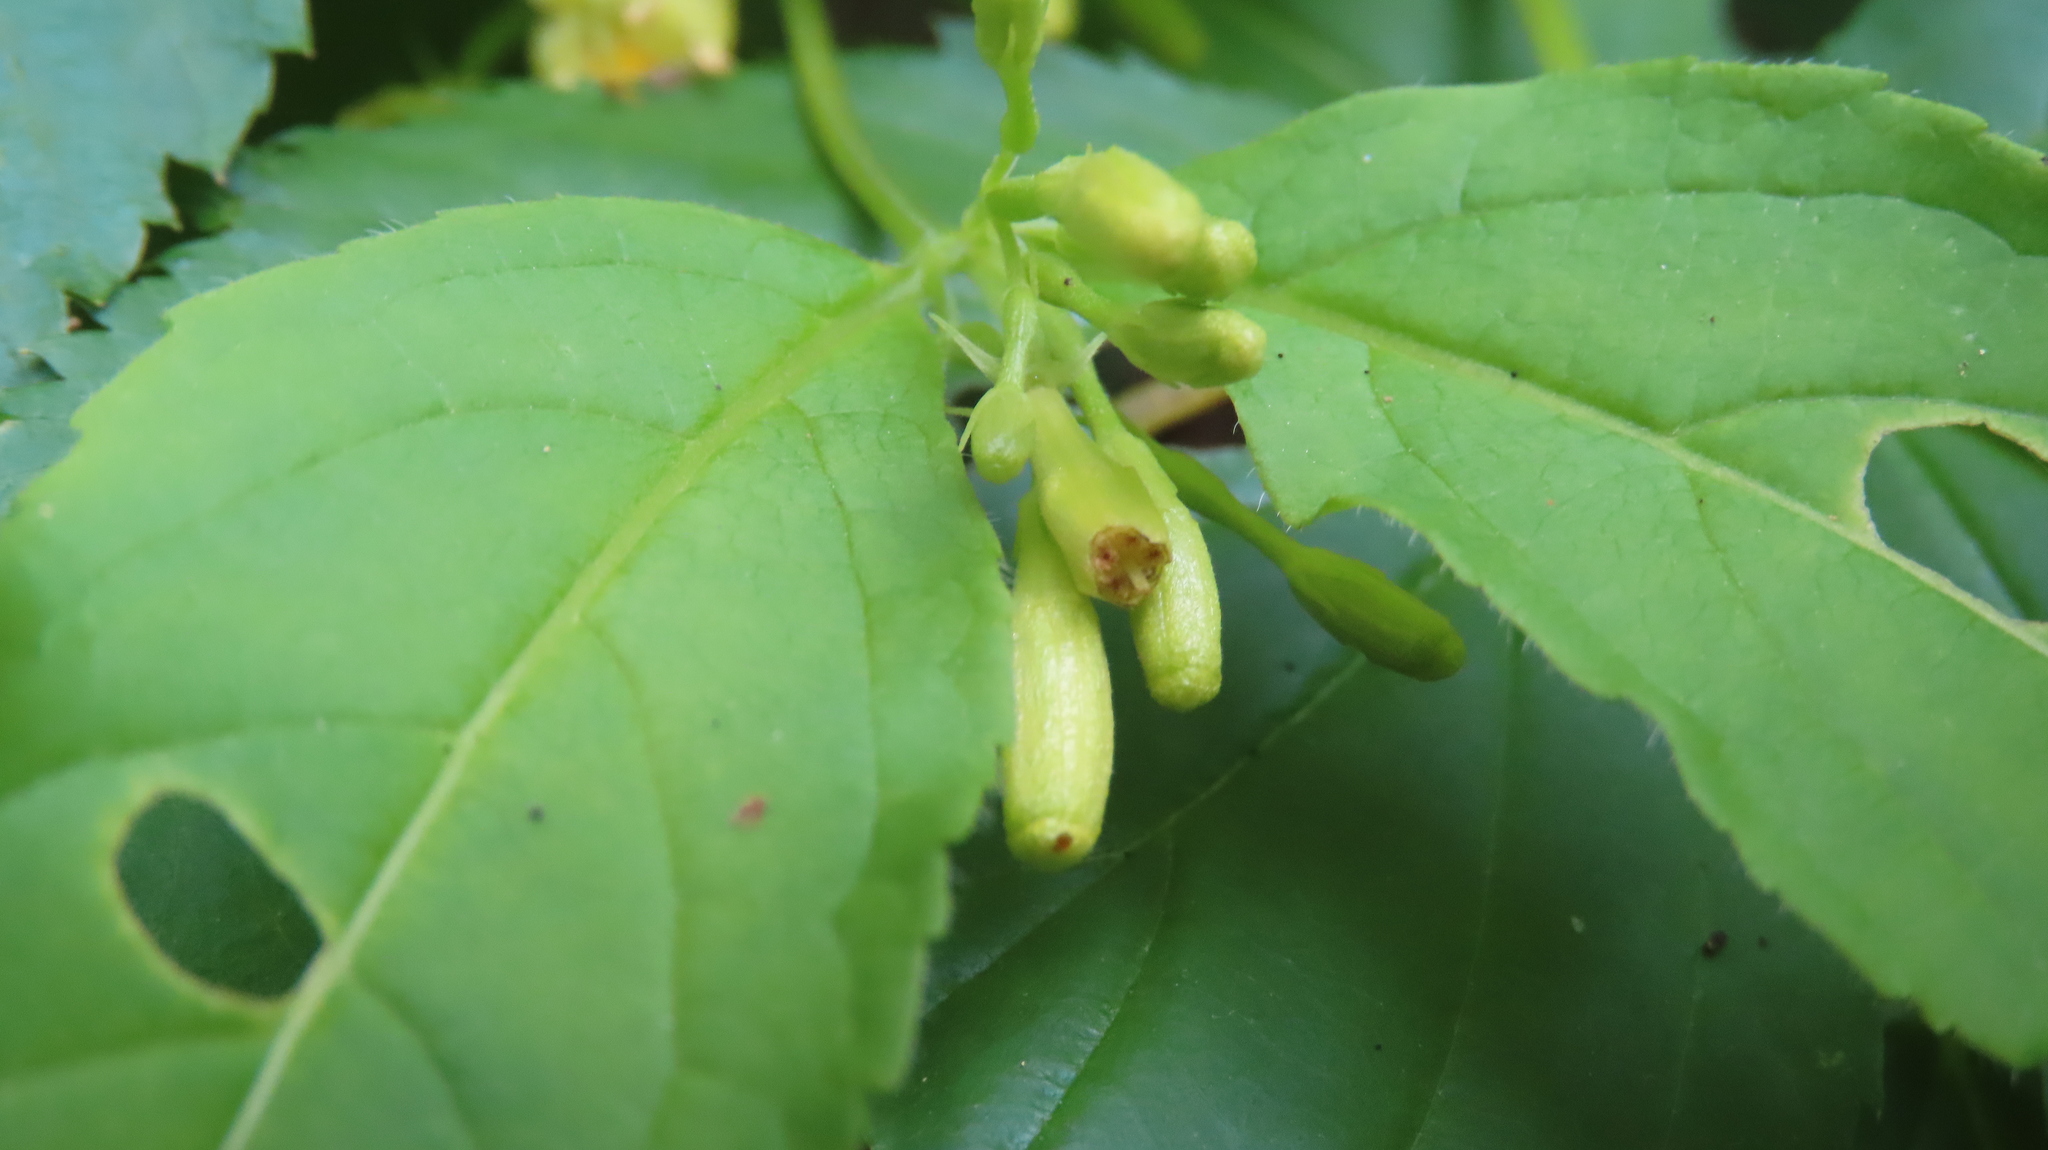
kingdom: Plantae
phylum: Tracheophyta
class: Magnoliopsida
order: Dipsacales
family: Caprifoliaceae
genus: Diervilla
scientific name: Diervilla lonicera
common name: Bush-honeysuckle
